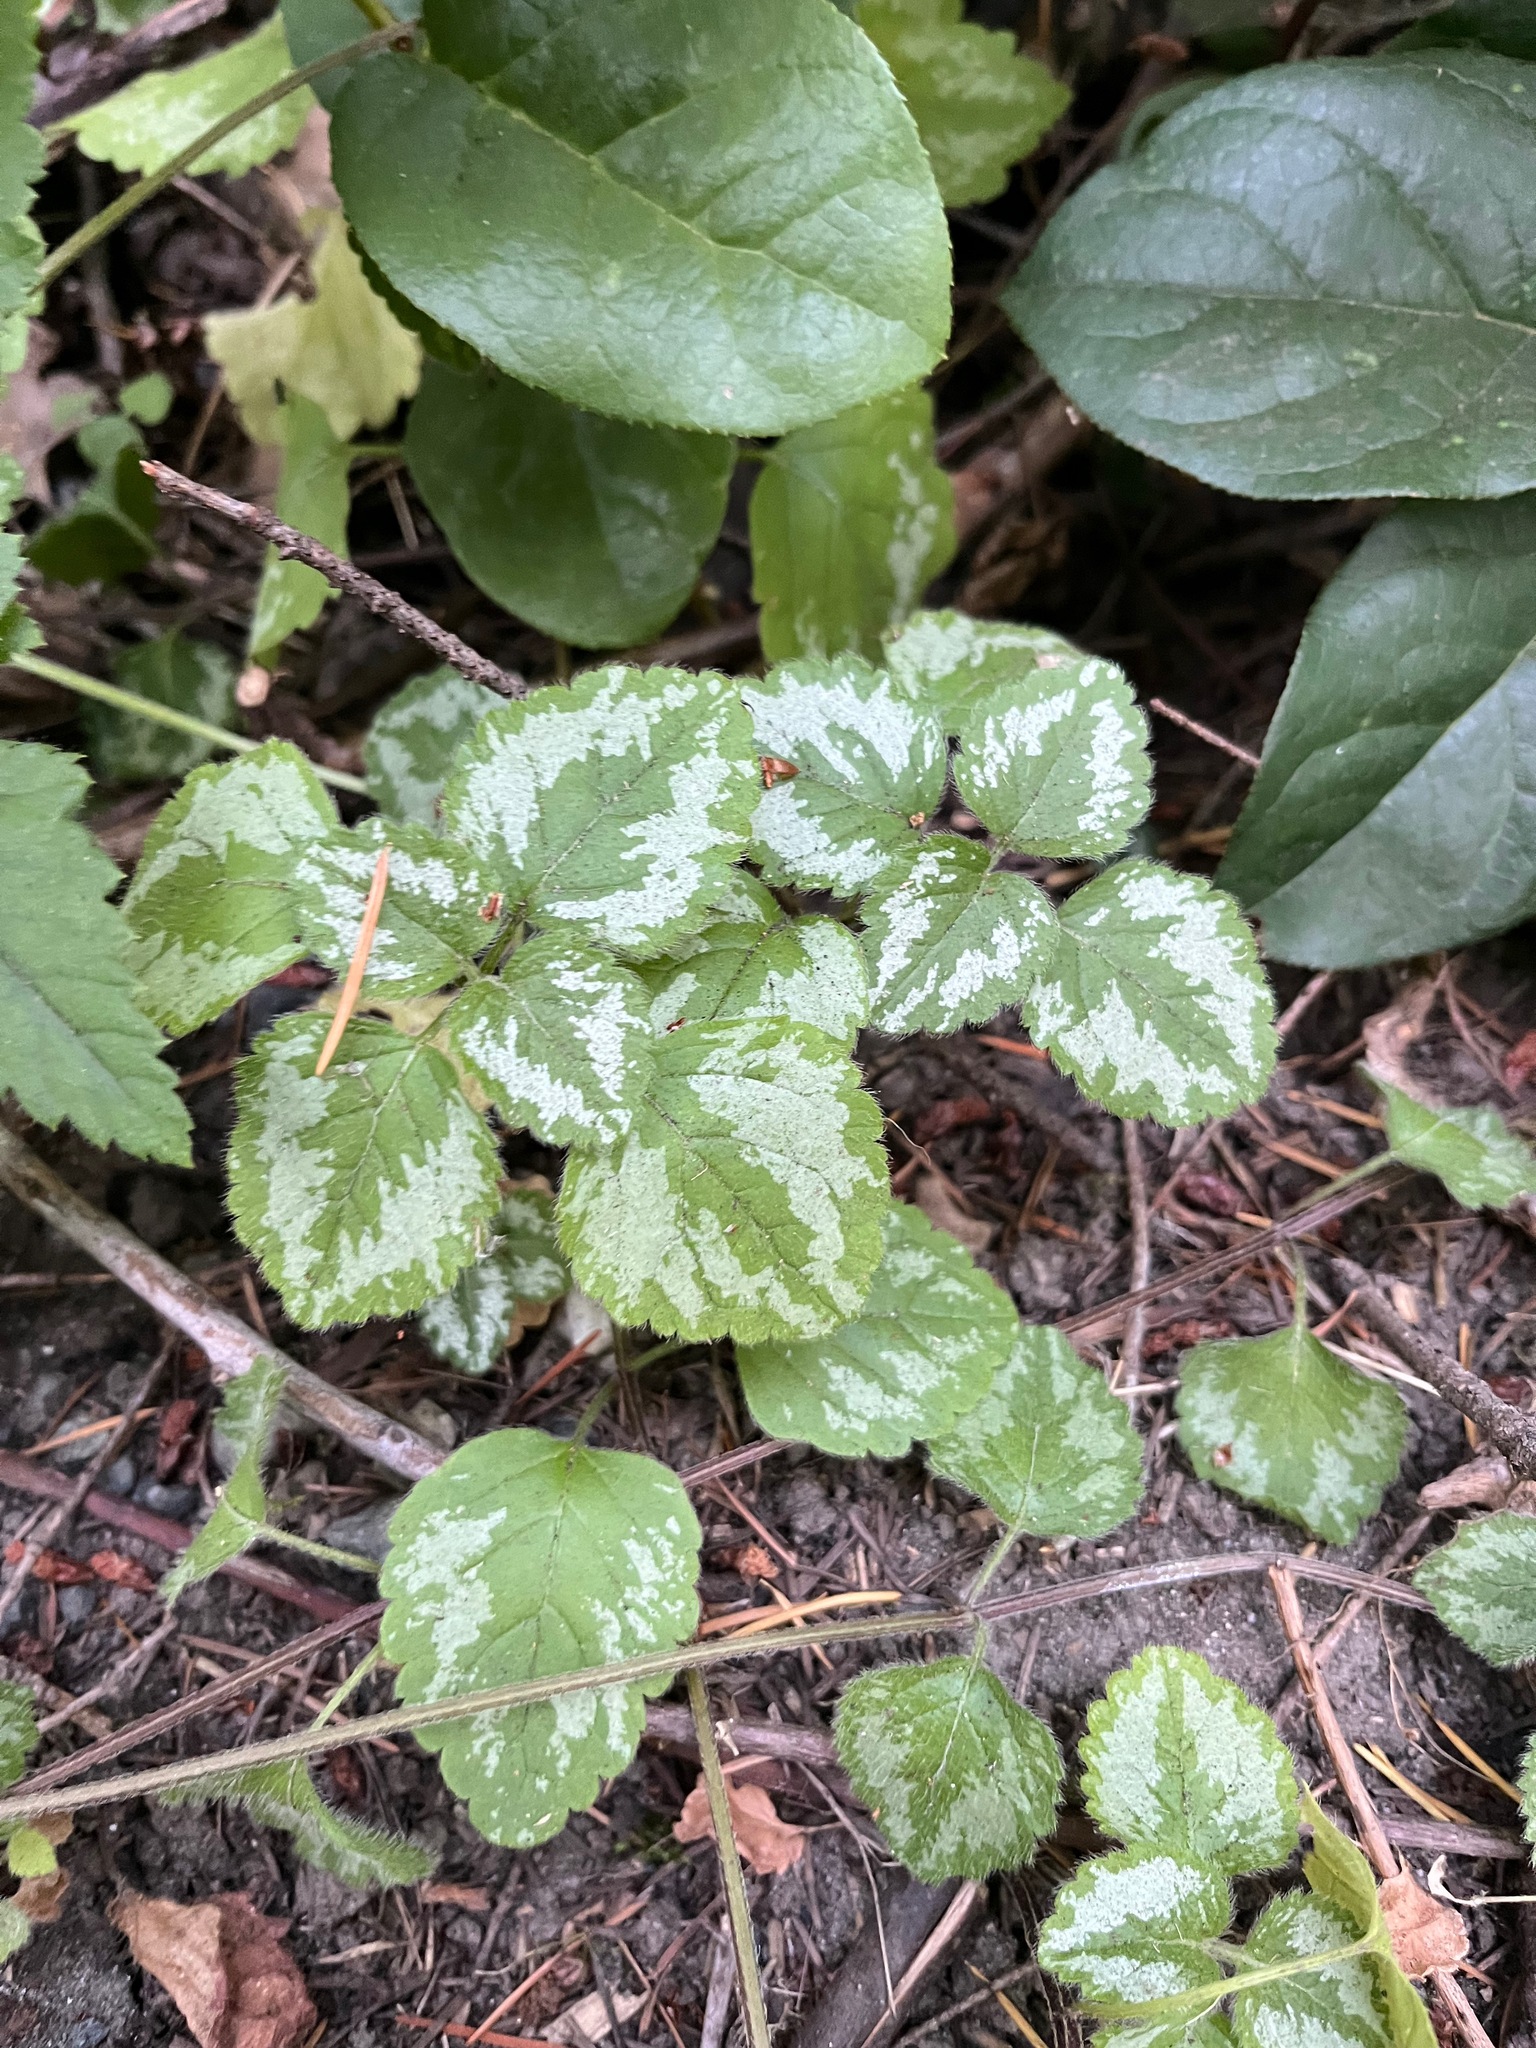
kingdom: Plantae
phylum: Tracheophyta
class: Magnoliopsida
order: Lamiales
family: Lamiaceae
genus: Lamium
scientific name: Lamium galeobdolon
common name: Yellow archangel
